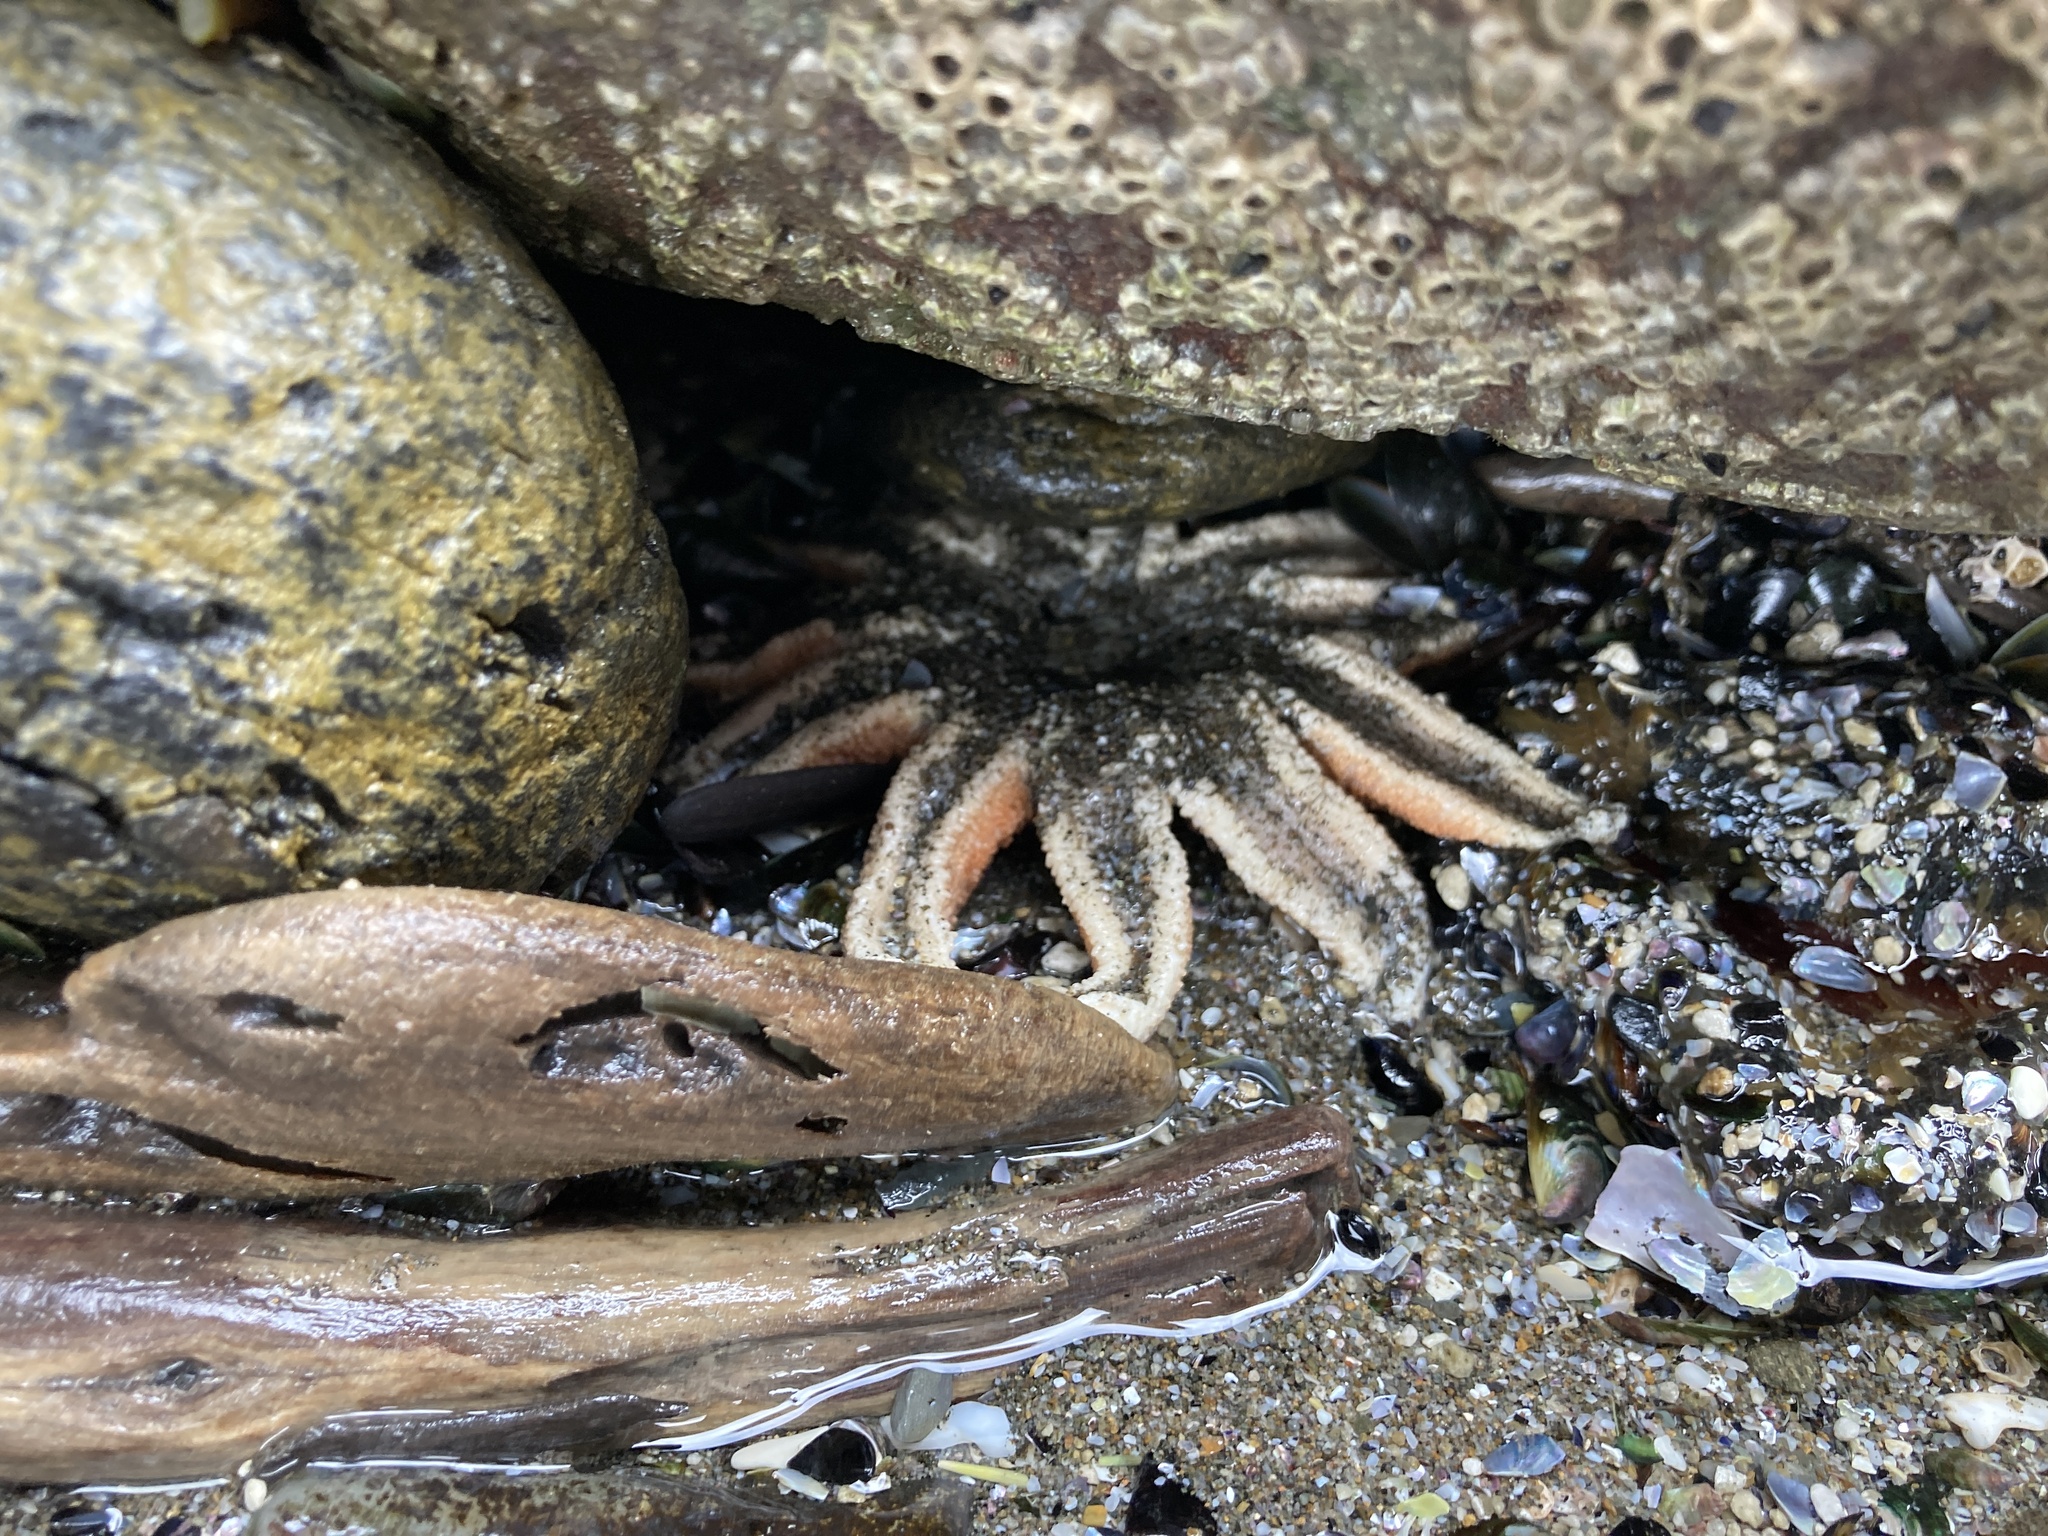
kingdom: Animalia
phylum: Echinodermata
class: Asteroidea
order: Forcipulatida
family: Stichasteridae
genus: Stichaster
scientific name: Stichaster australis
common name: Reef starfish
